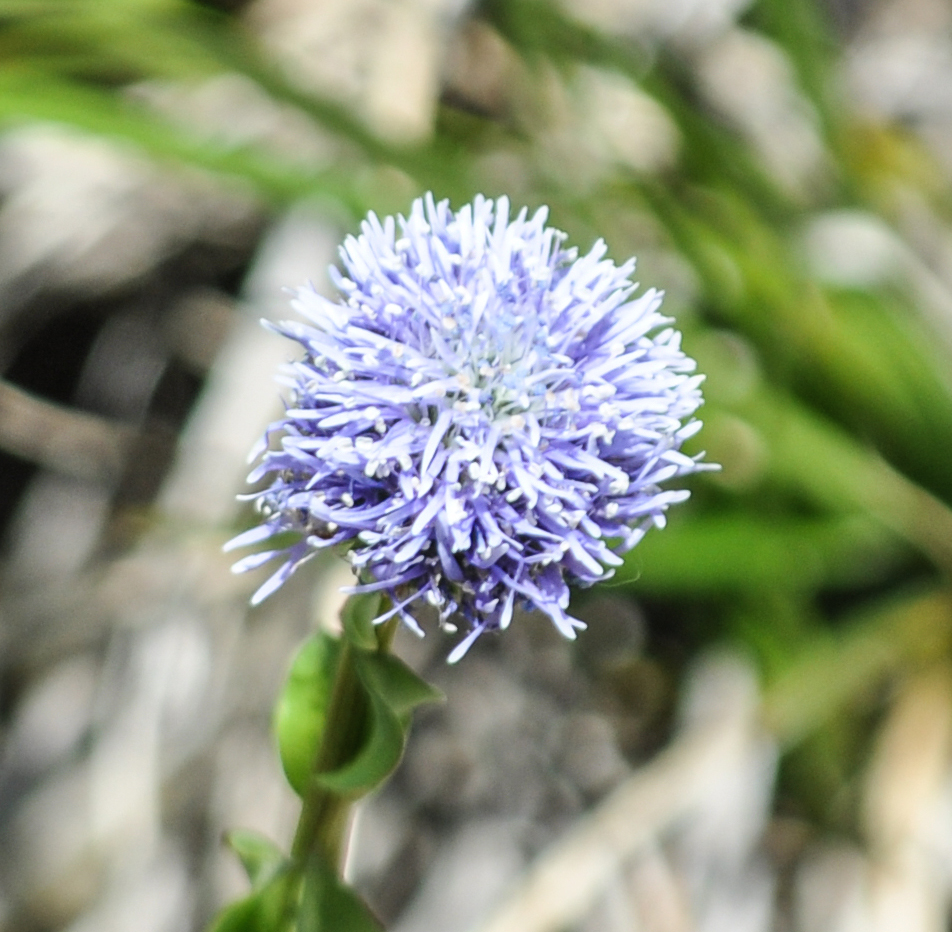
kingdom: Plantae
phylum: Tracheophyta
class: Magnoliopsida
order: Asterales
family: Campanulaceae
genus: Jasione
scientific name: Jasione montana
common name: Sheep's-bit
